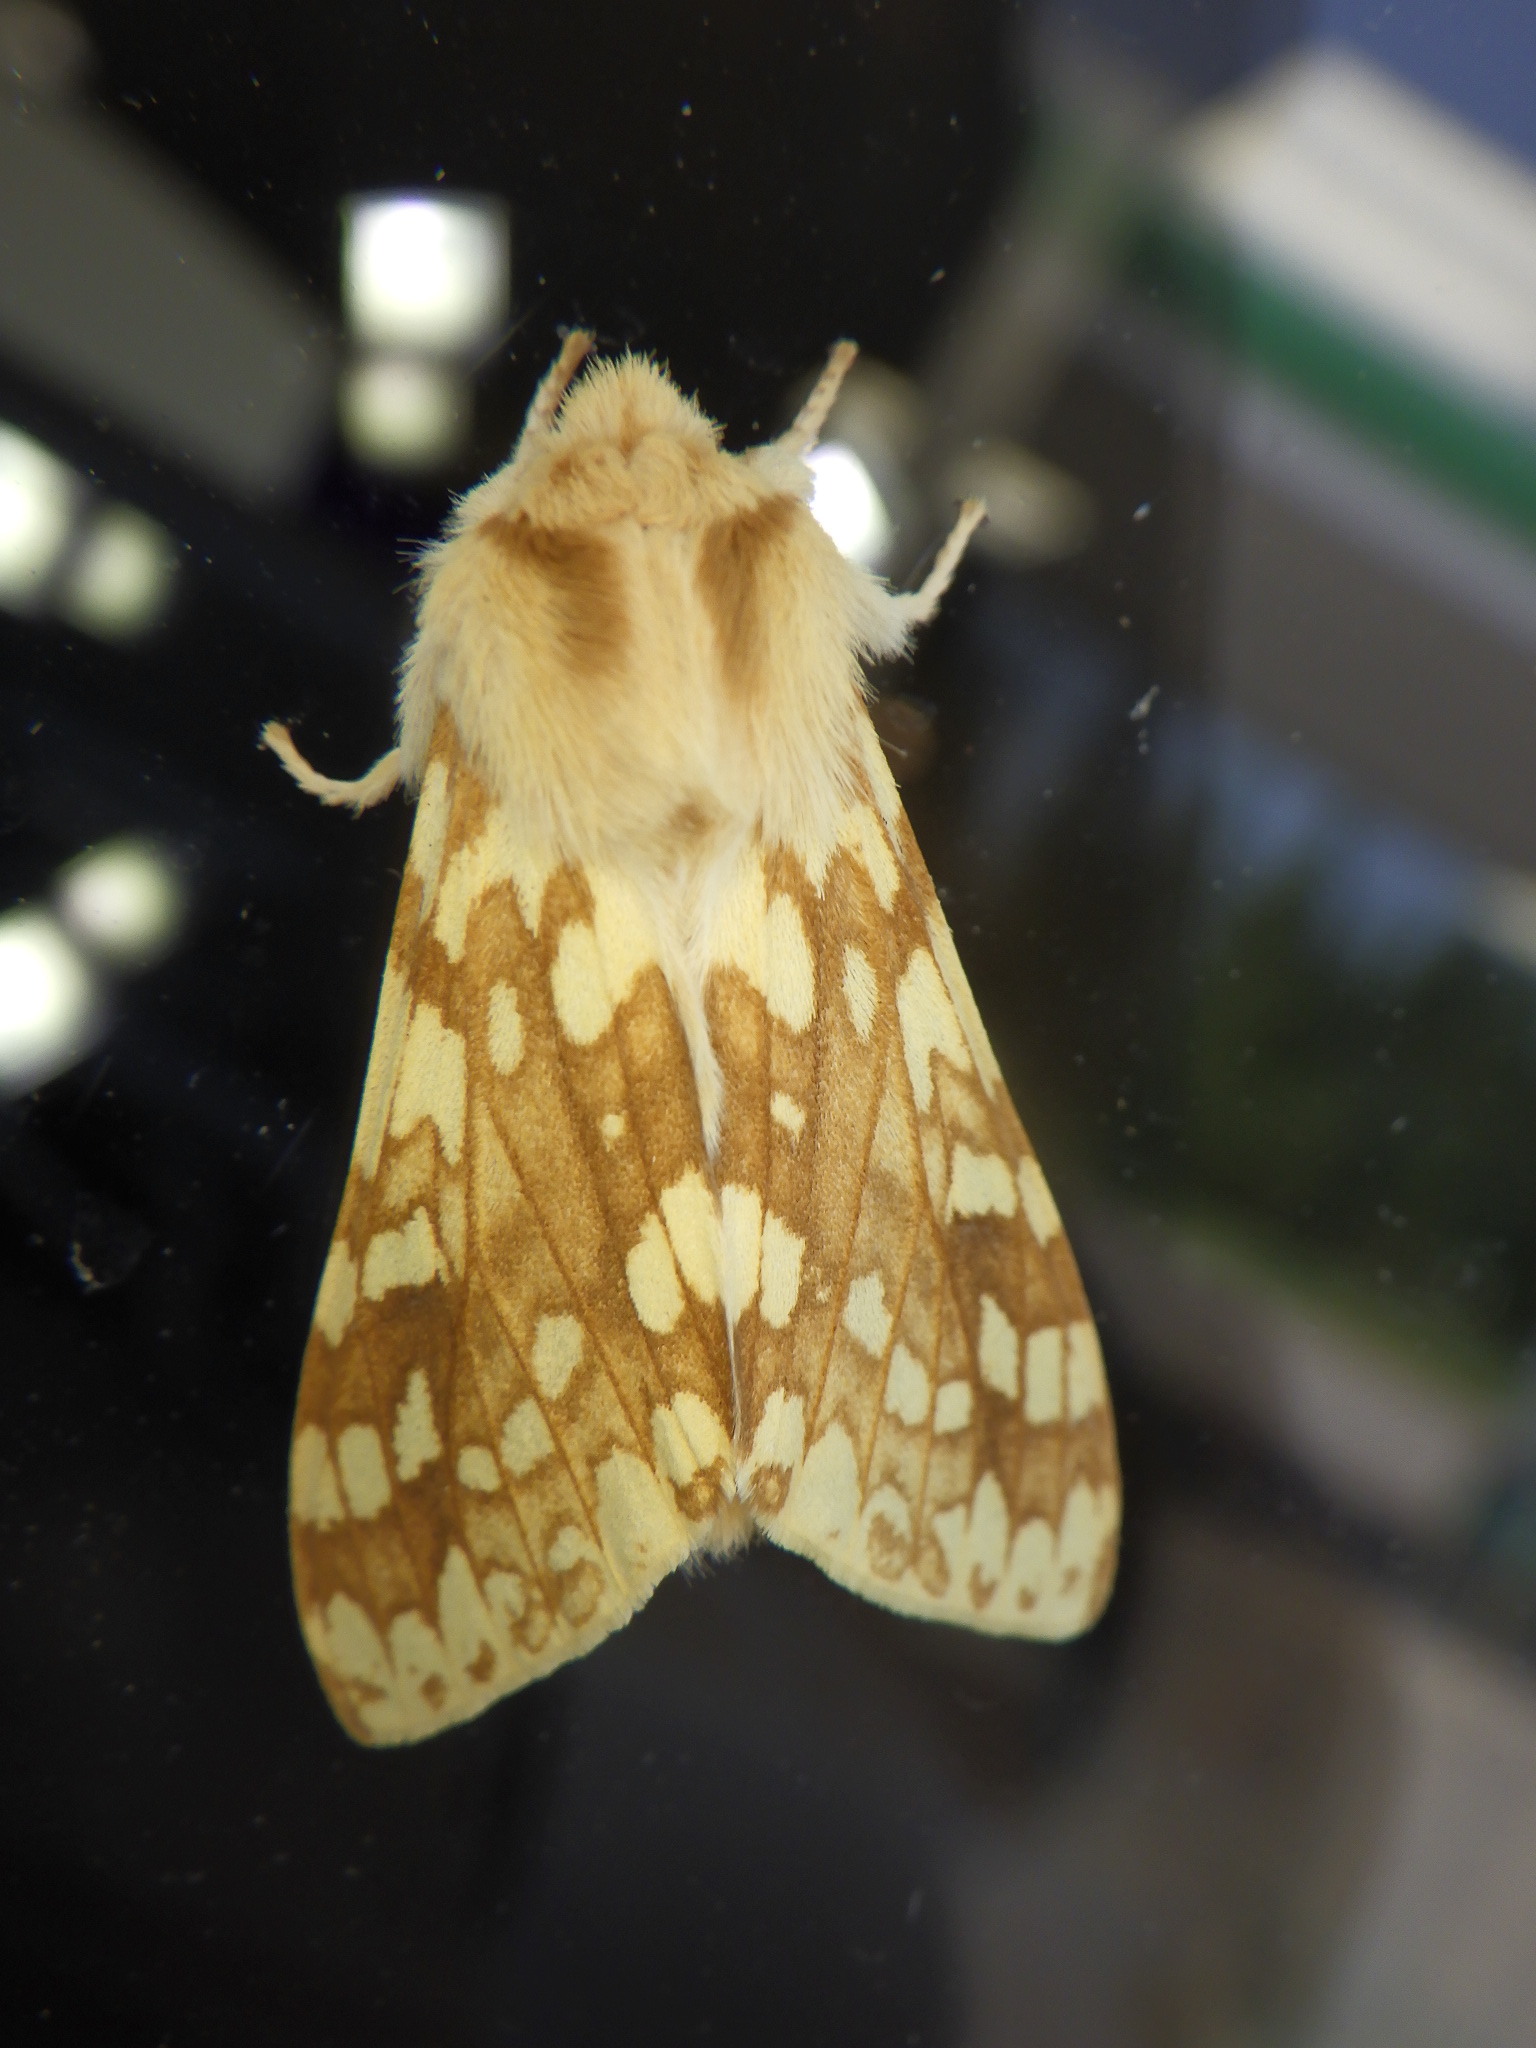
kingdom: Animalia
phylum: Arthropoda
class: Insecta
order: Lepidoptera
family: Erebidae
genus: Lophocampa
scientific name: Lophocampa maculata
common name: Spotted tussock moth
